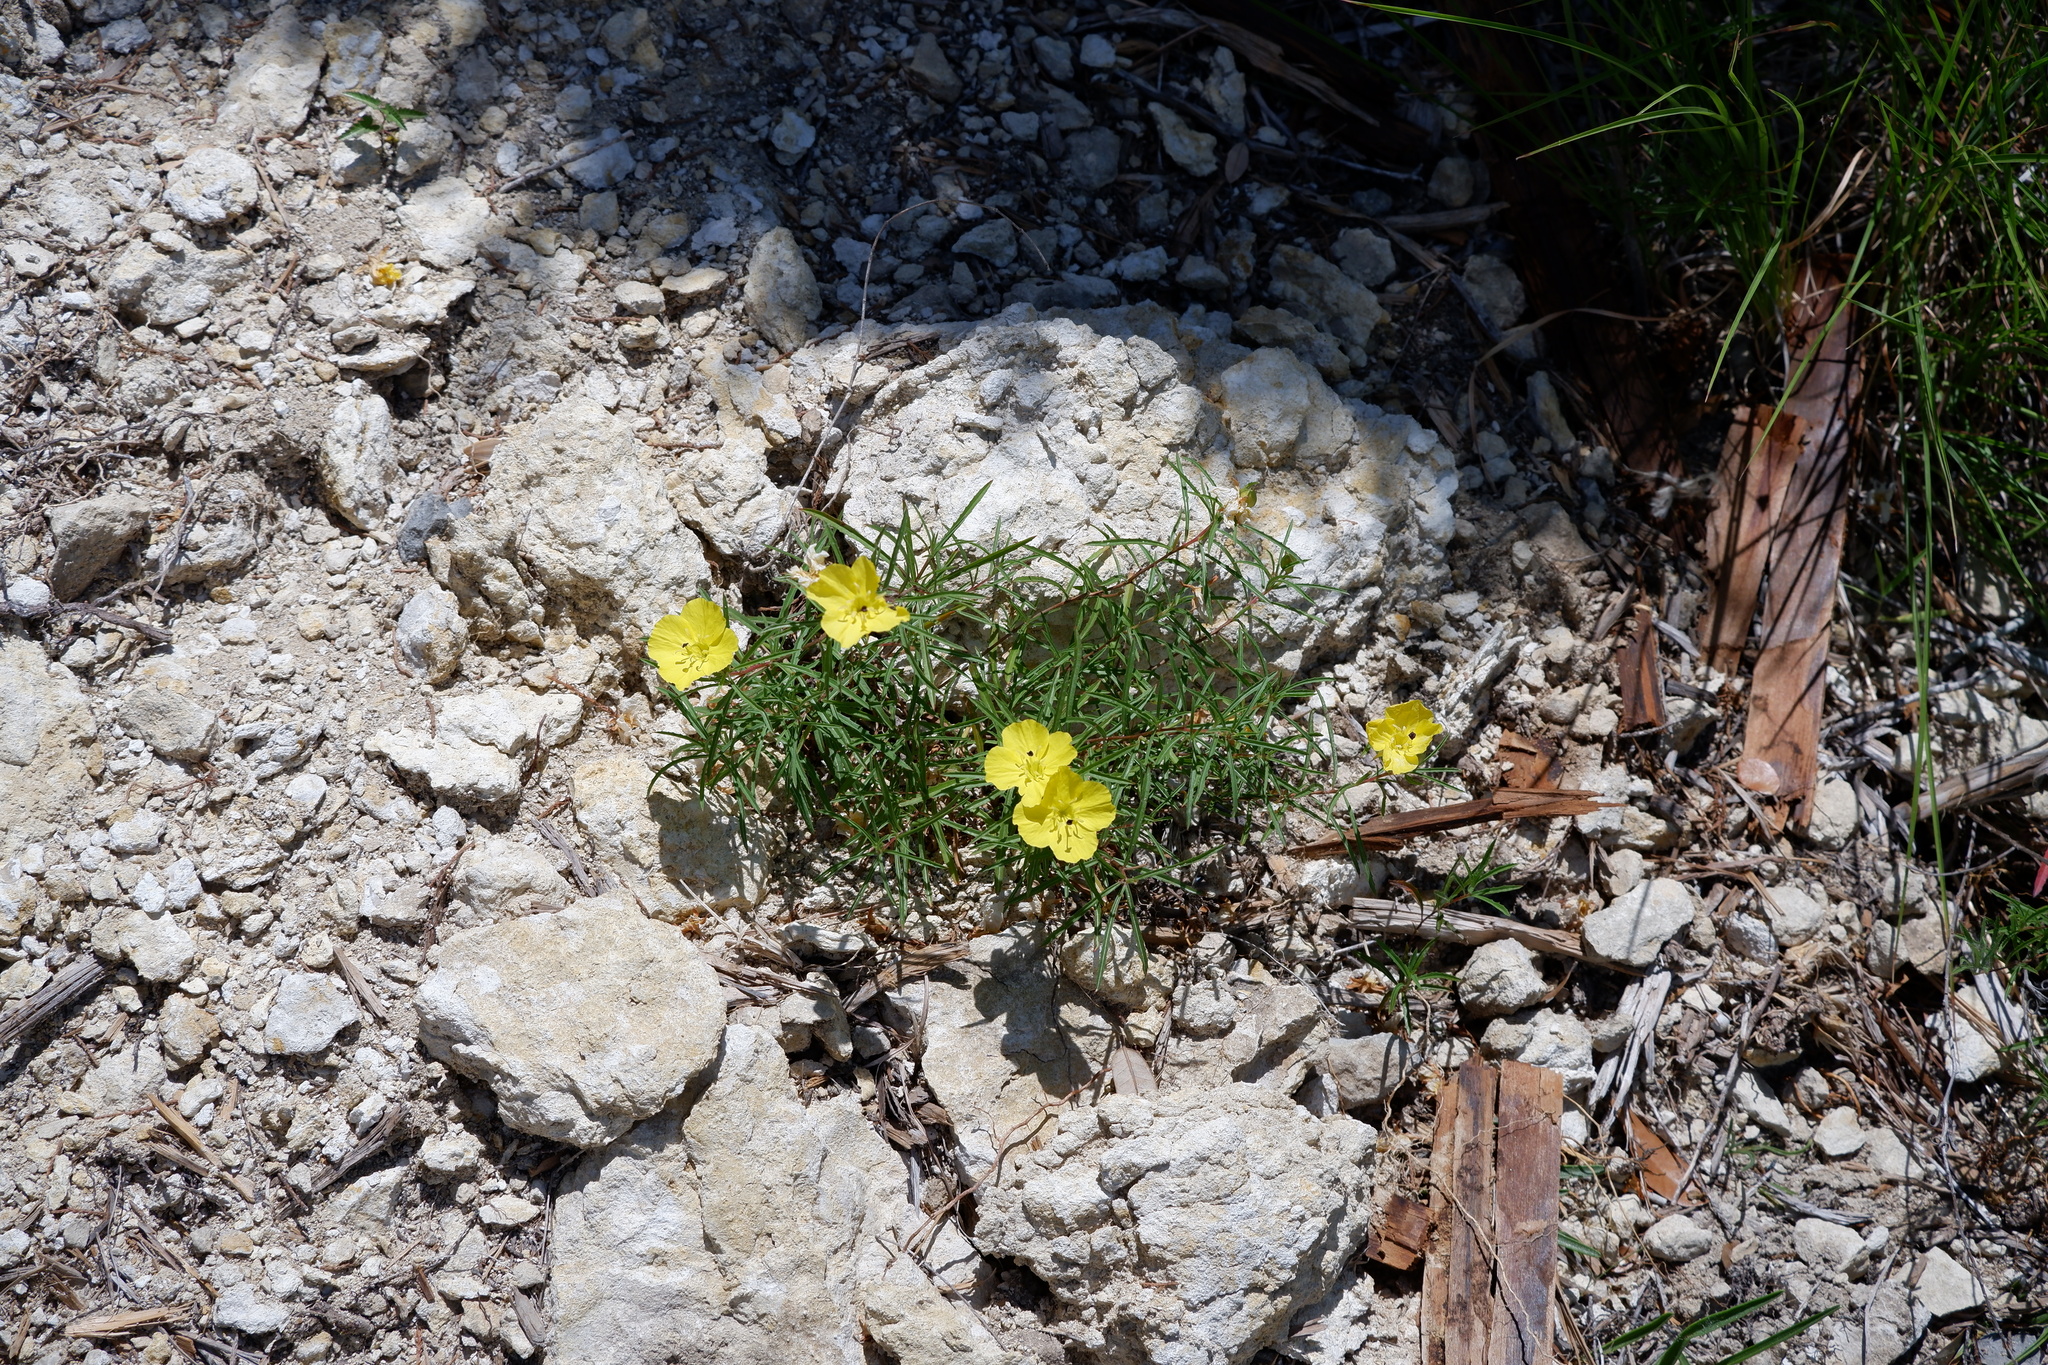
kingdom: Plantae
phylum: Tracheophyta
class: Magnoliopsida
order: Myrtales
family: Onagraceae
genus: Oenothera
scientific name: Oenothera capillifolia
